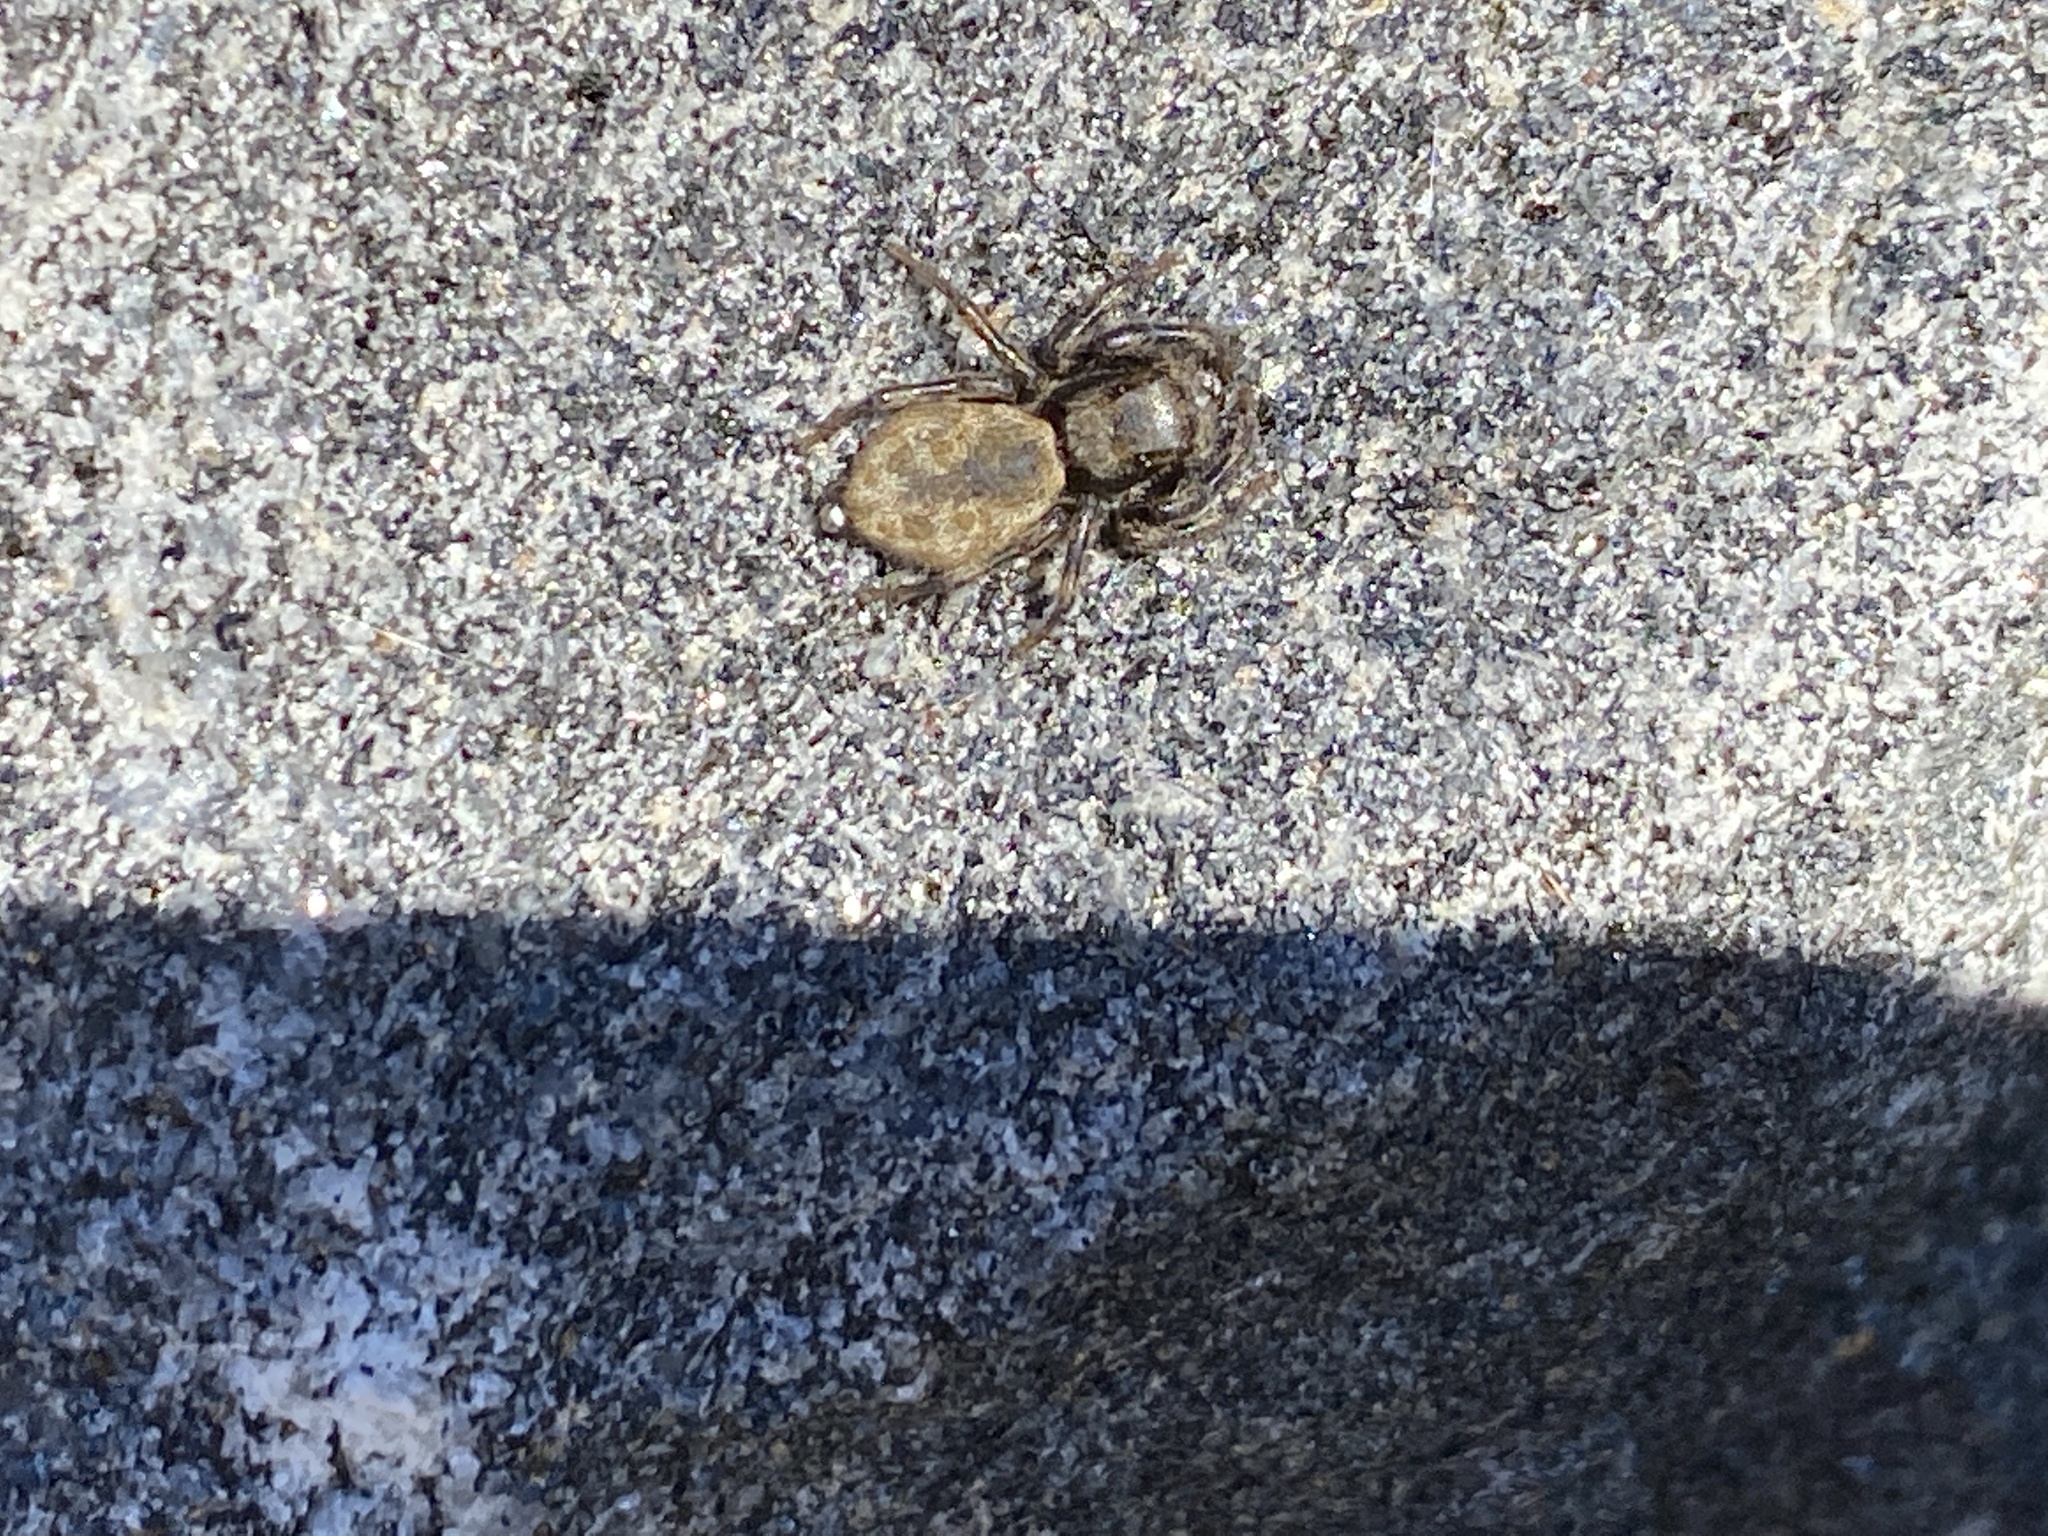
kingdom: Animalia
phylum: Arthropoda
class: Arachnida
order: Araneae
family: Salticidae
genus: Hakka
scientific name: Hakka himeshimensis
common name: Jumping spider
